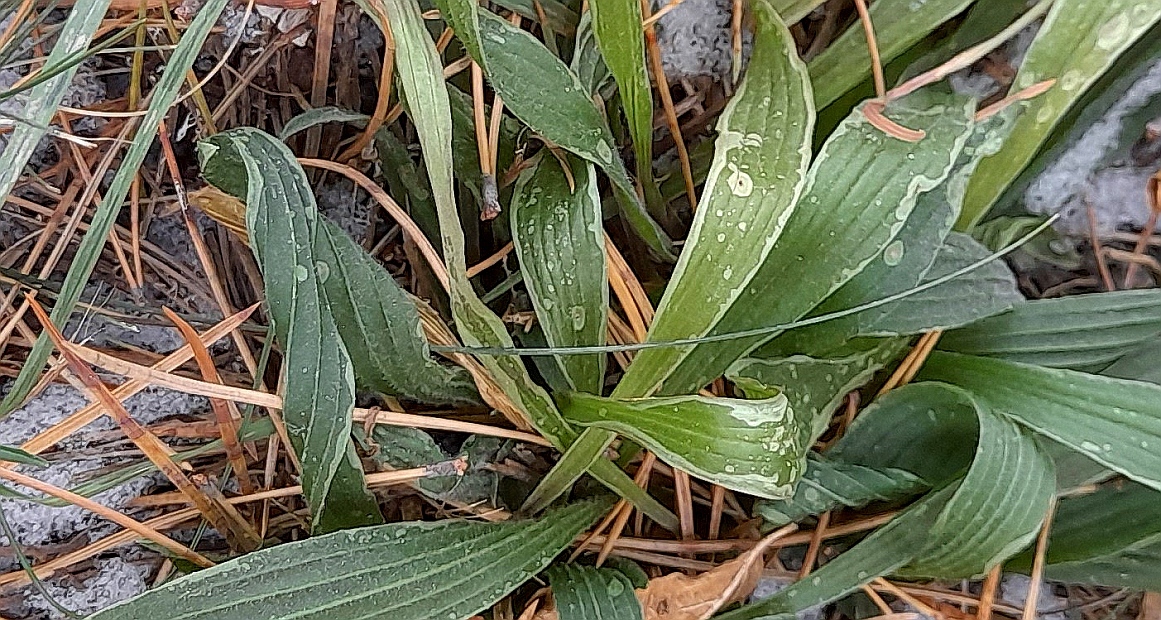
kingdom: Plantae
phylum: Tracheophyta
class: Magnoliopsida
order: Lamiales
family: Plantaginaceae
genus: Plantago
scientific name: Plantago lanceolata
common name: Ribwort plantain
